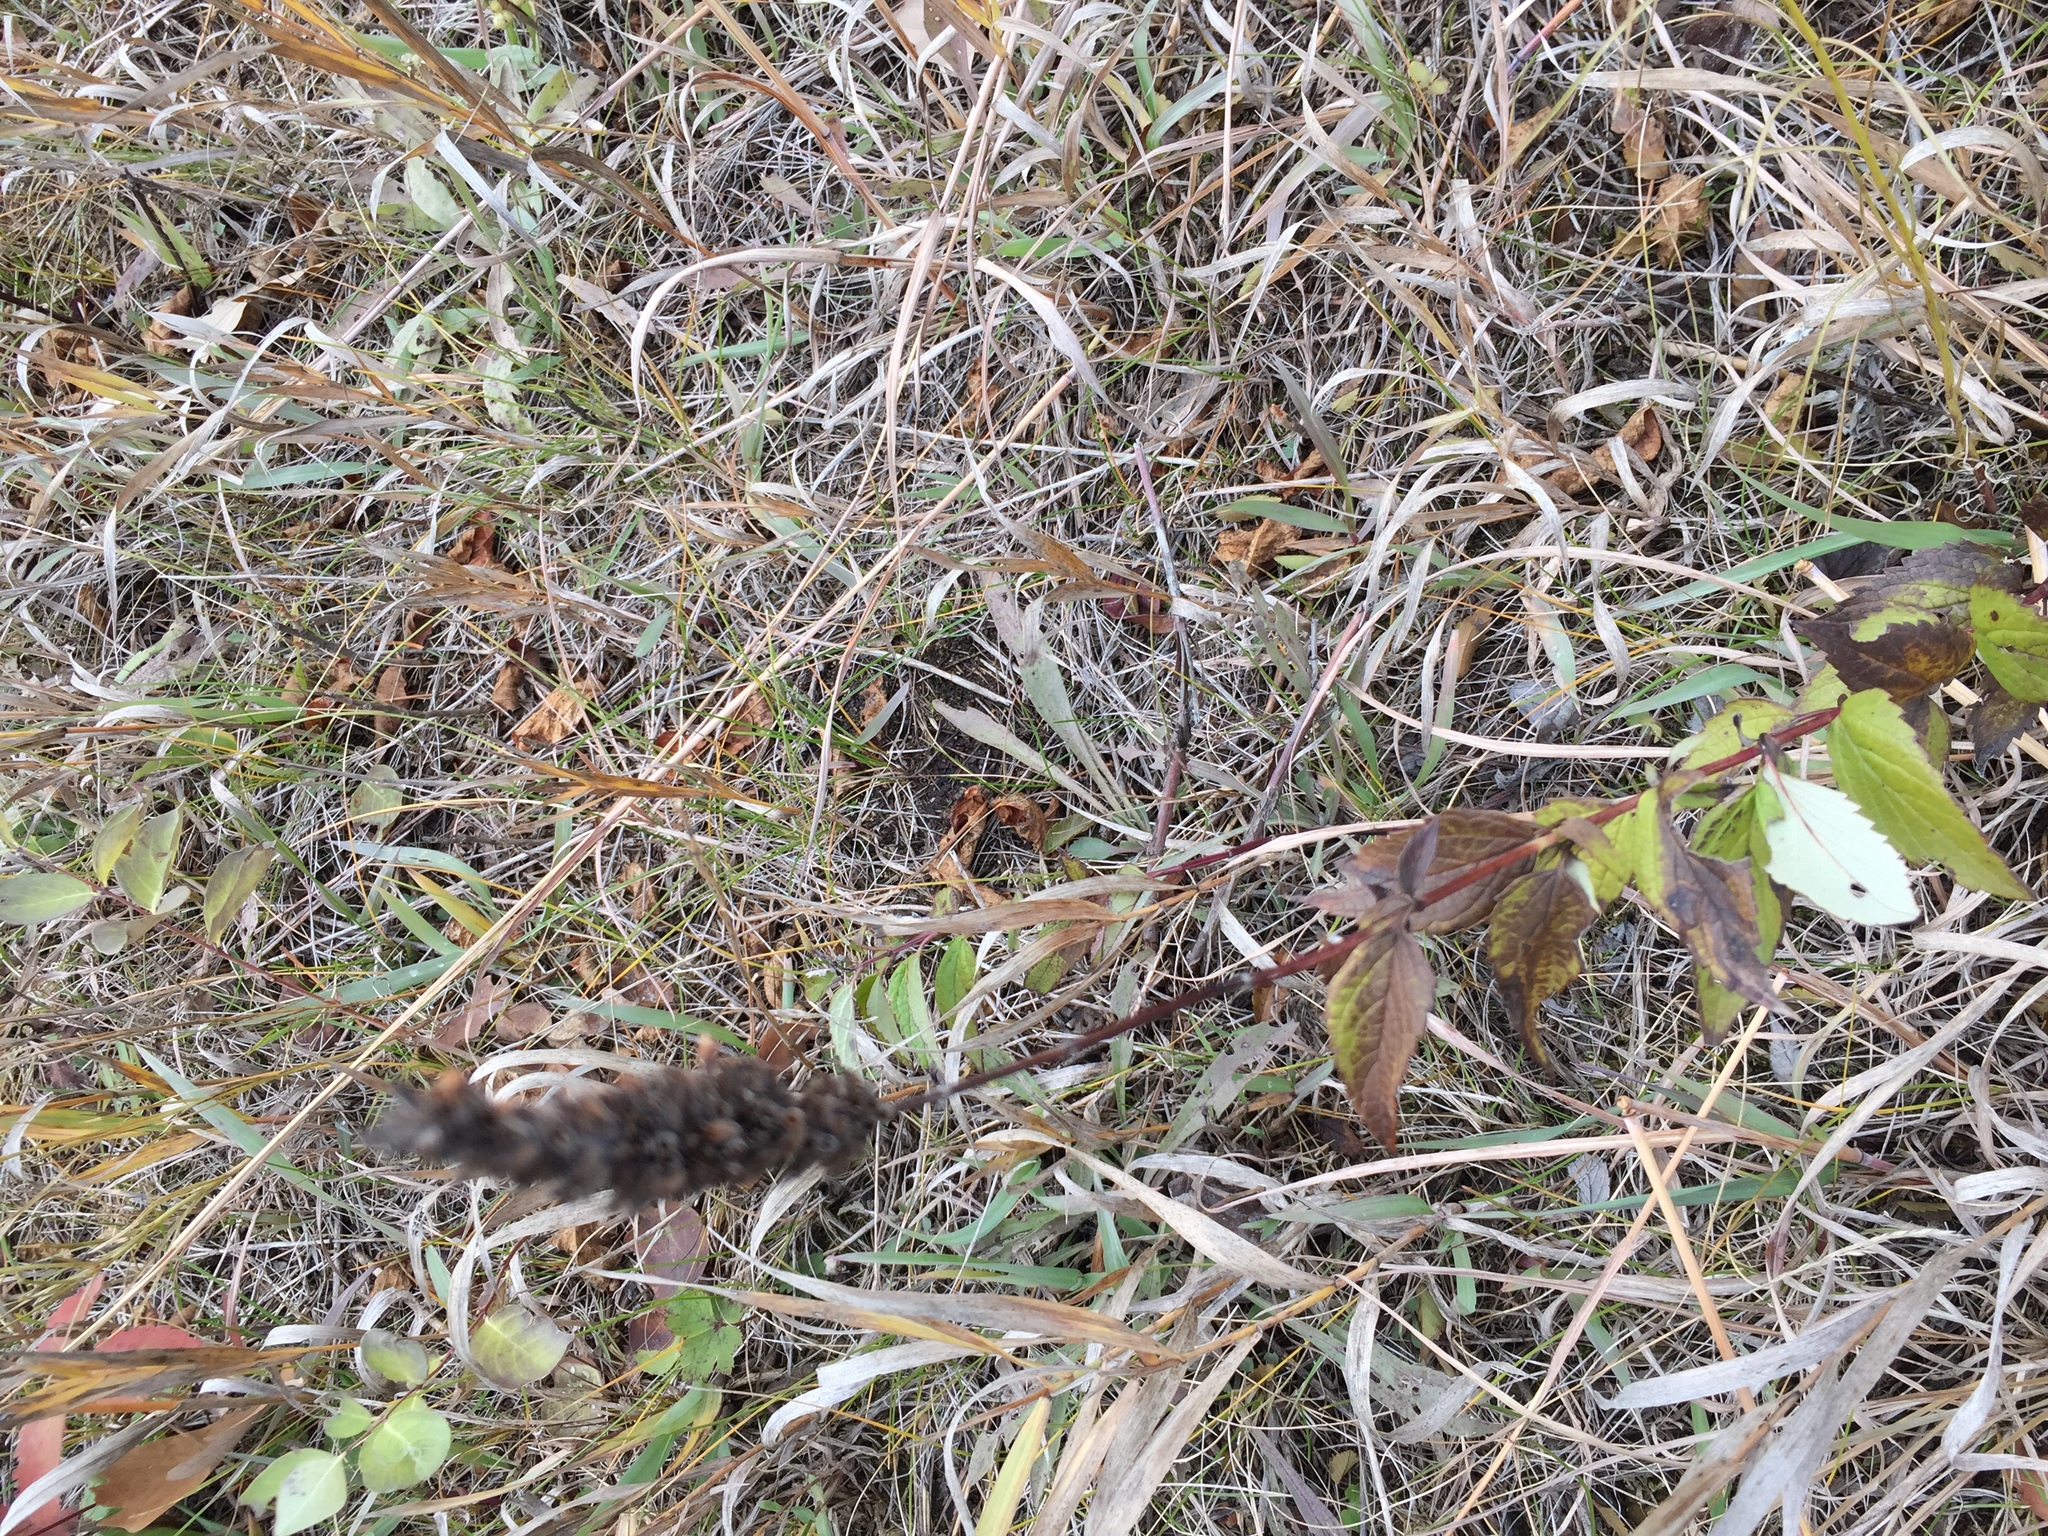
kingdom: Plantae
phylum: Tracheophyta
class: Magnoliopsida
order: Lamiales
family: Lamiaceae
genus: Agastache
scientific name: Agastache foeniculum
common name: Anise hyssop
